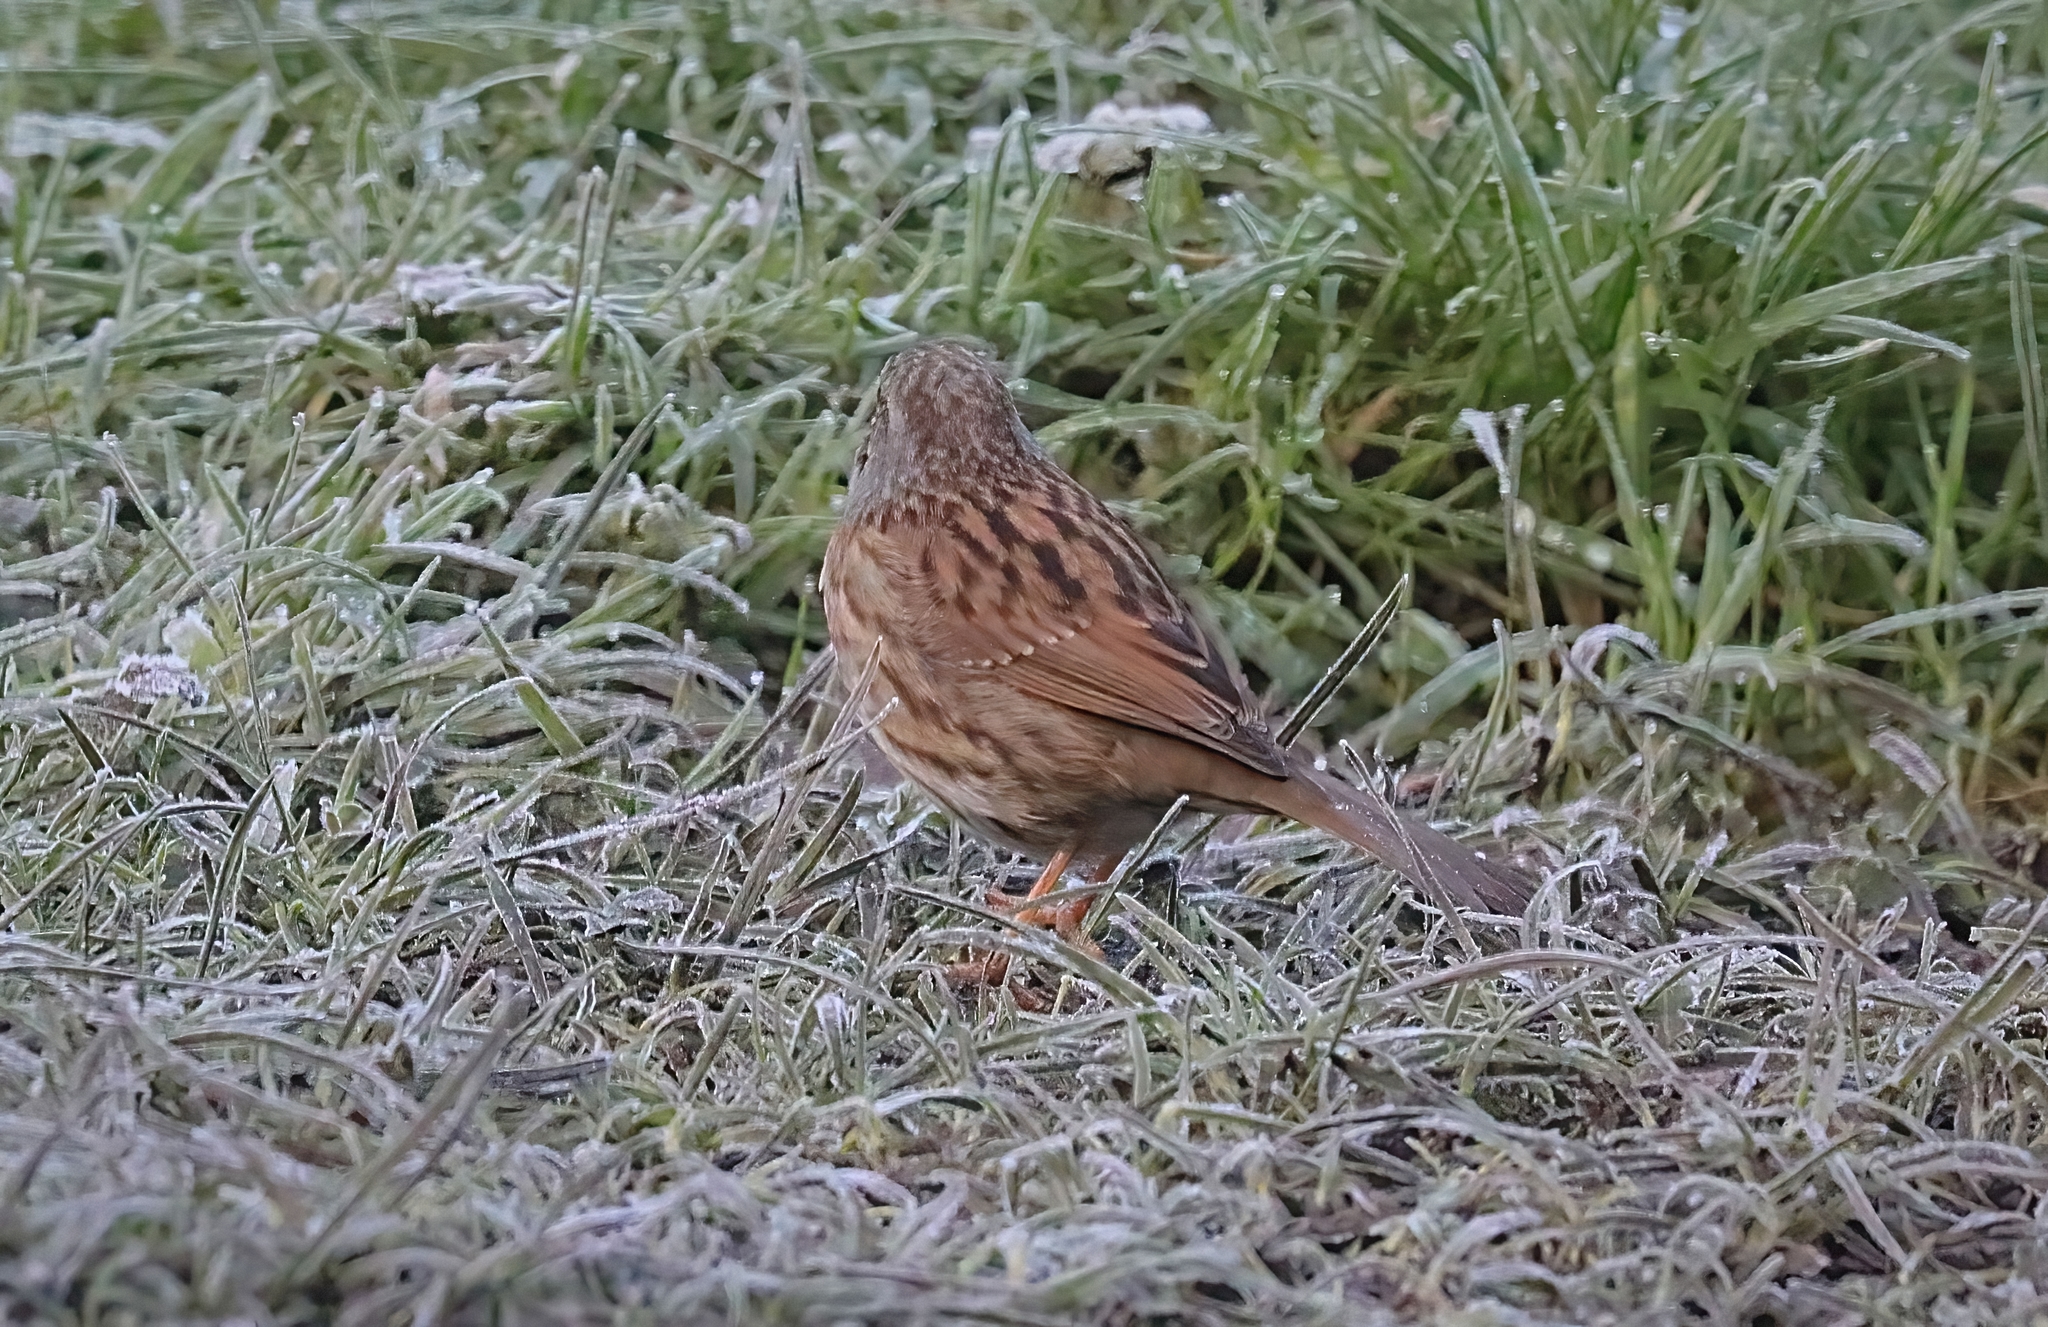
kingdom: Animalia
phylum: Chordata
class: Aves
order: Passeriformes
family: Prunellidae
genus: Prunella
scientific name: Prunella modularis
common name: Dunnock
